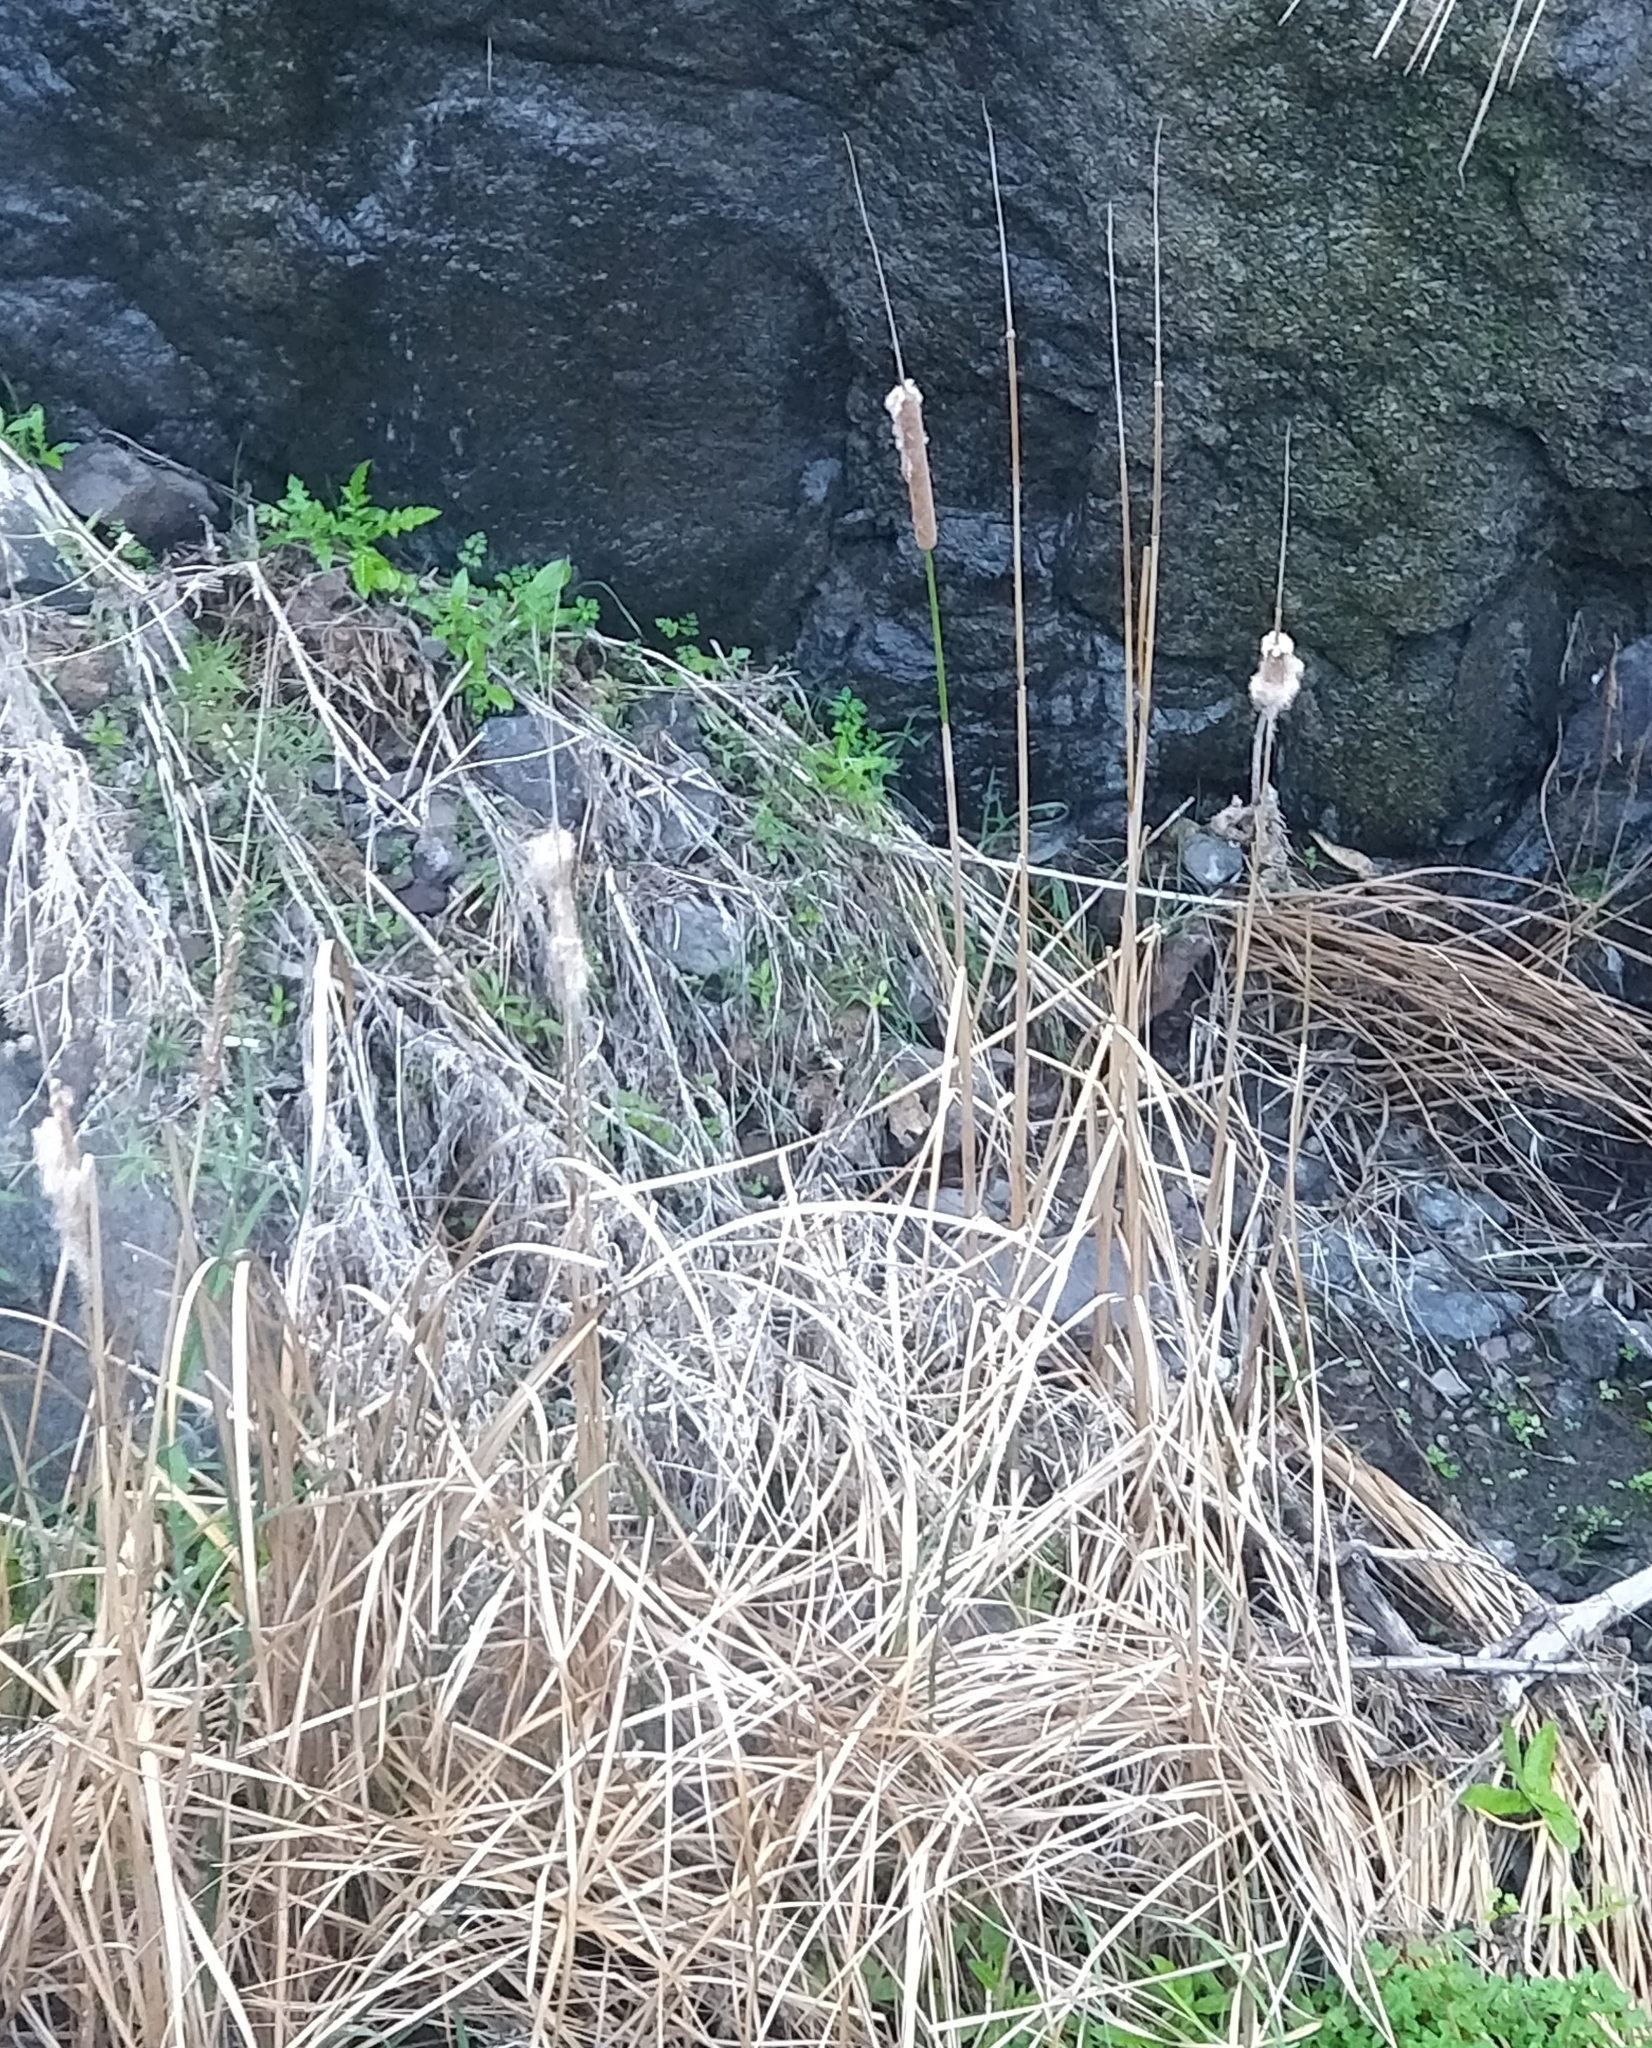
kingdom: Plantae
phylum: Tracheophyta
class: Liliopsida
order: Poales
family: Typhaceae
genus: Typha
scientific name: Typha domingensis
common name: Southern cattail
